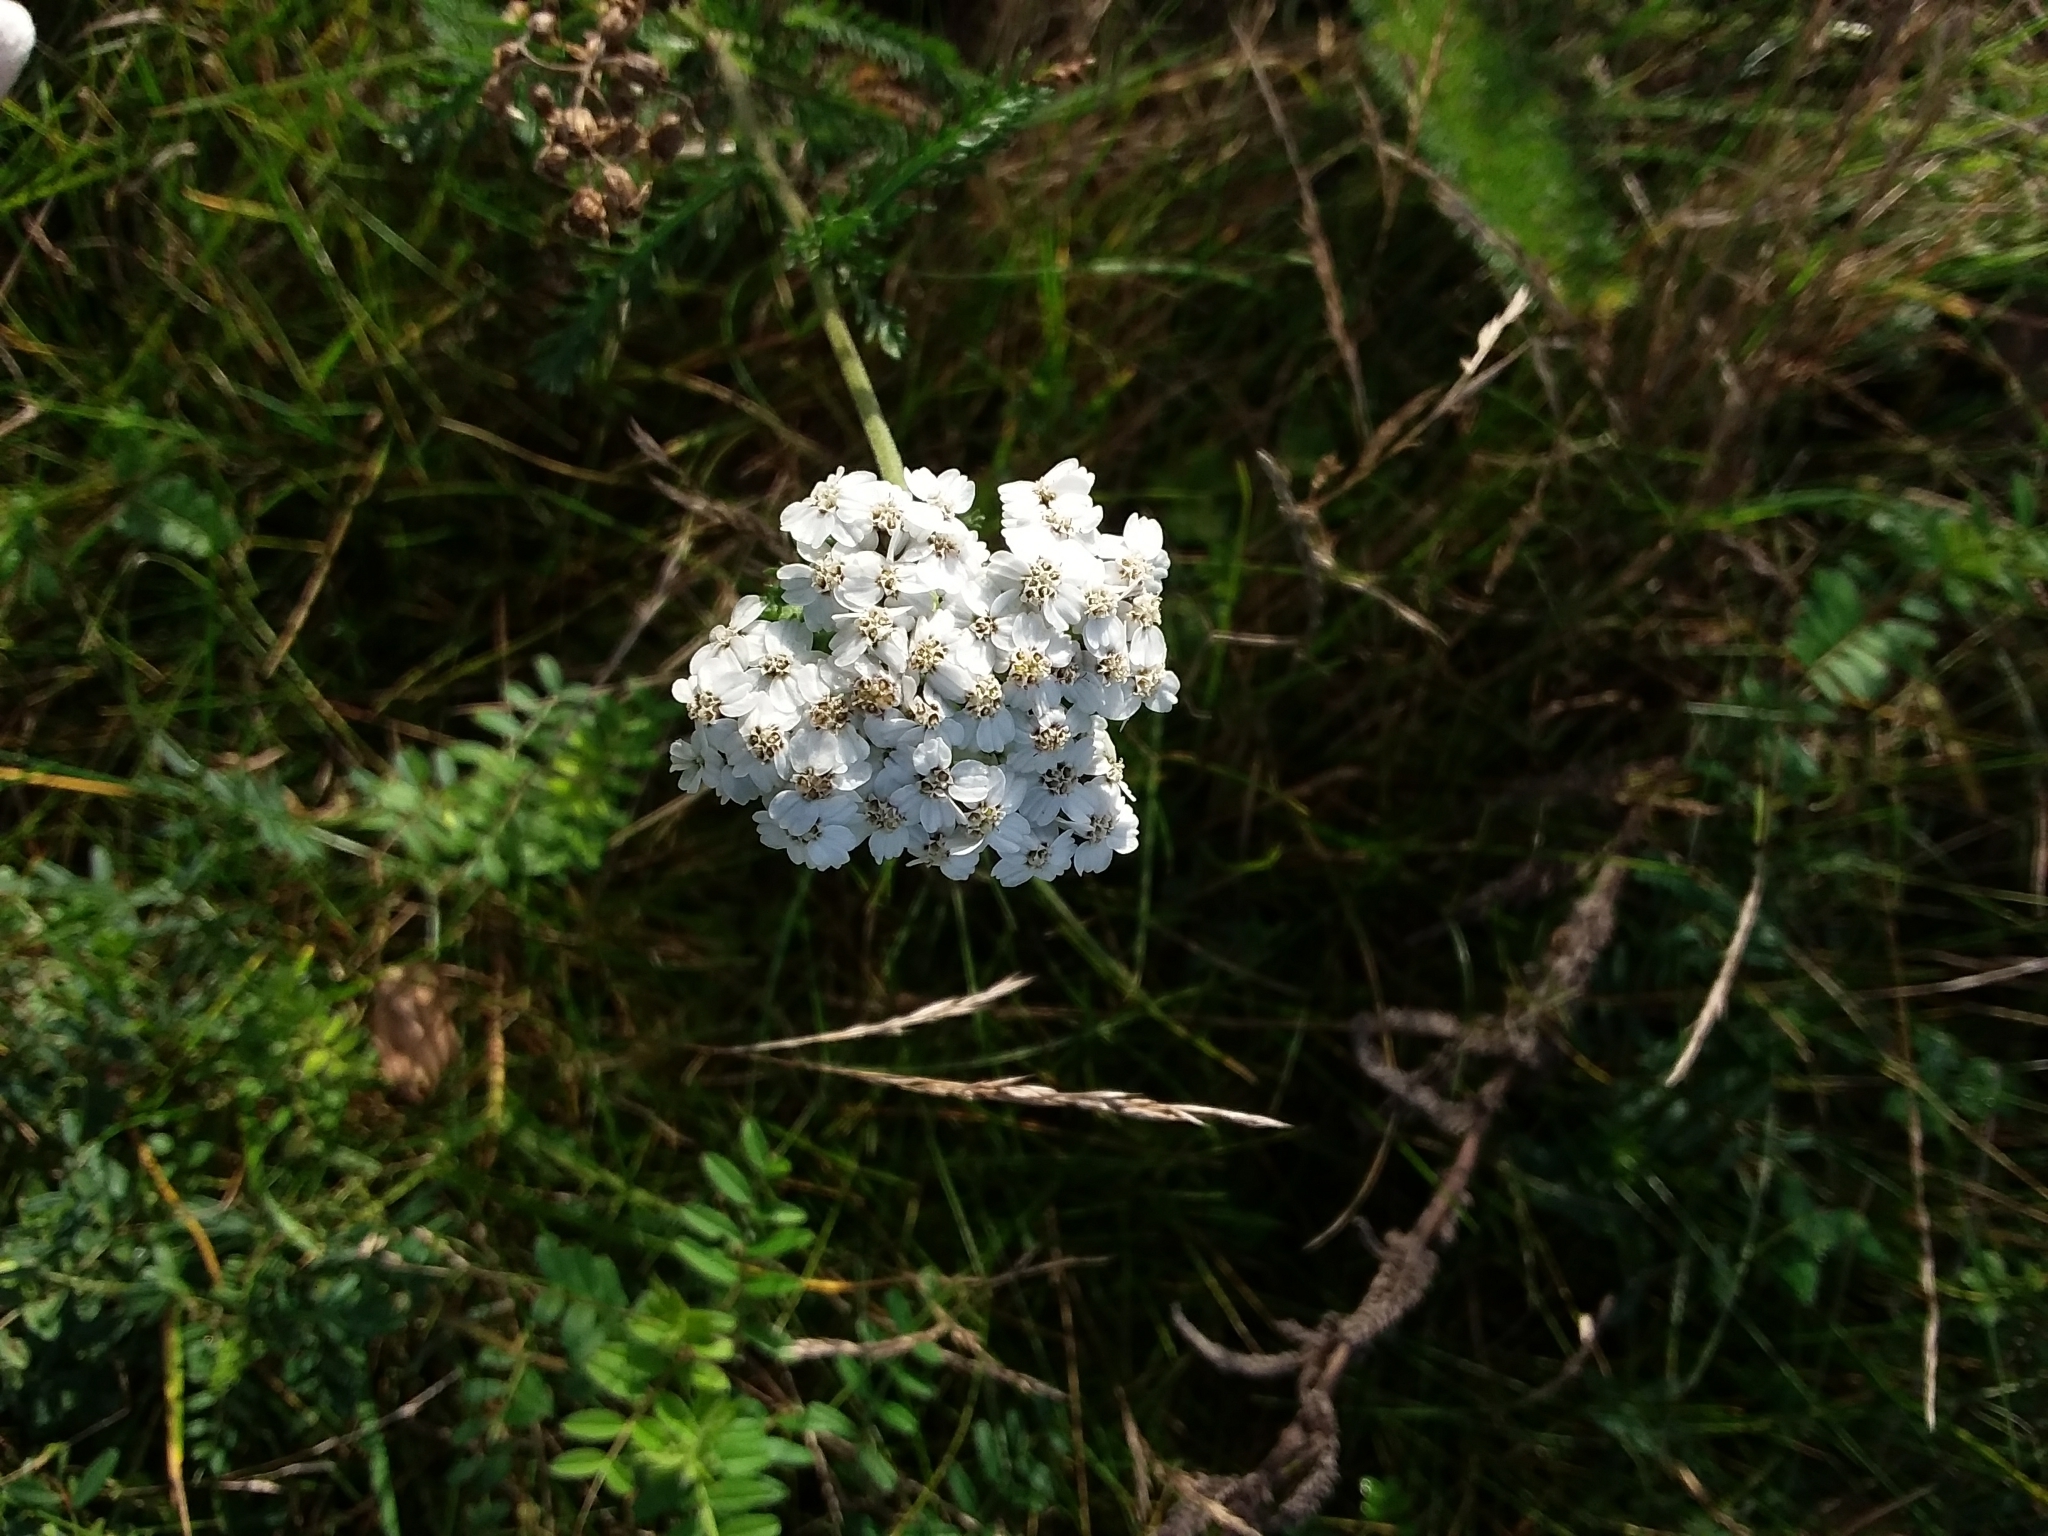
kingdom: Plantae
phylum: Tracheophyta
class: Magnoliopsida
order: Asterales
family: Asteraceae
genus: Achillea
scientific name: Achillea millefolium
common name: Yarrow
